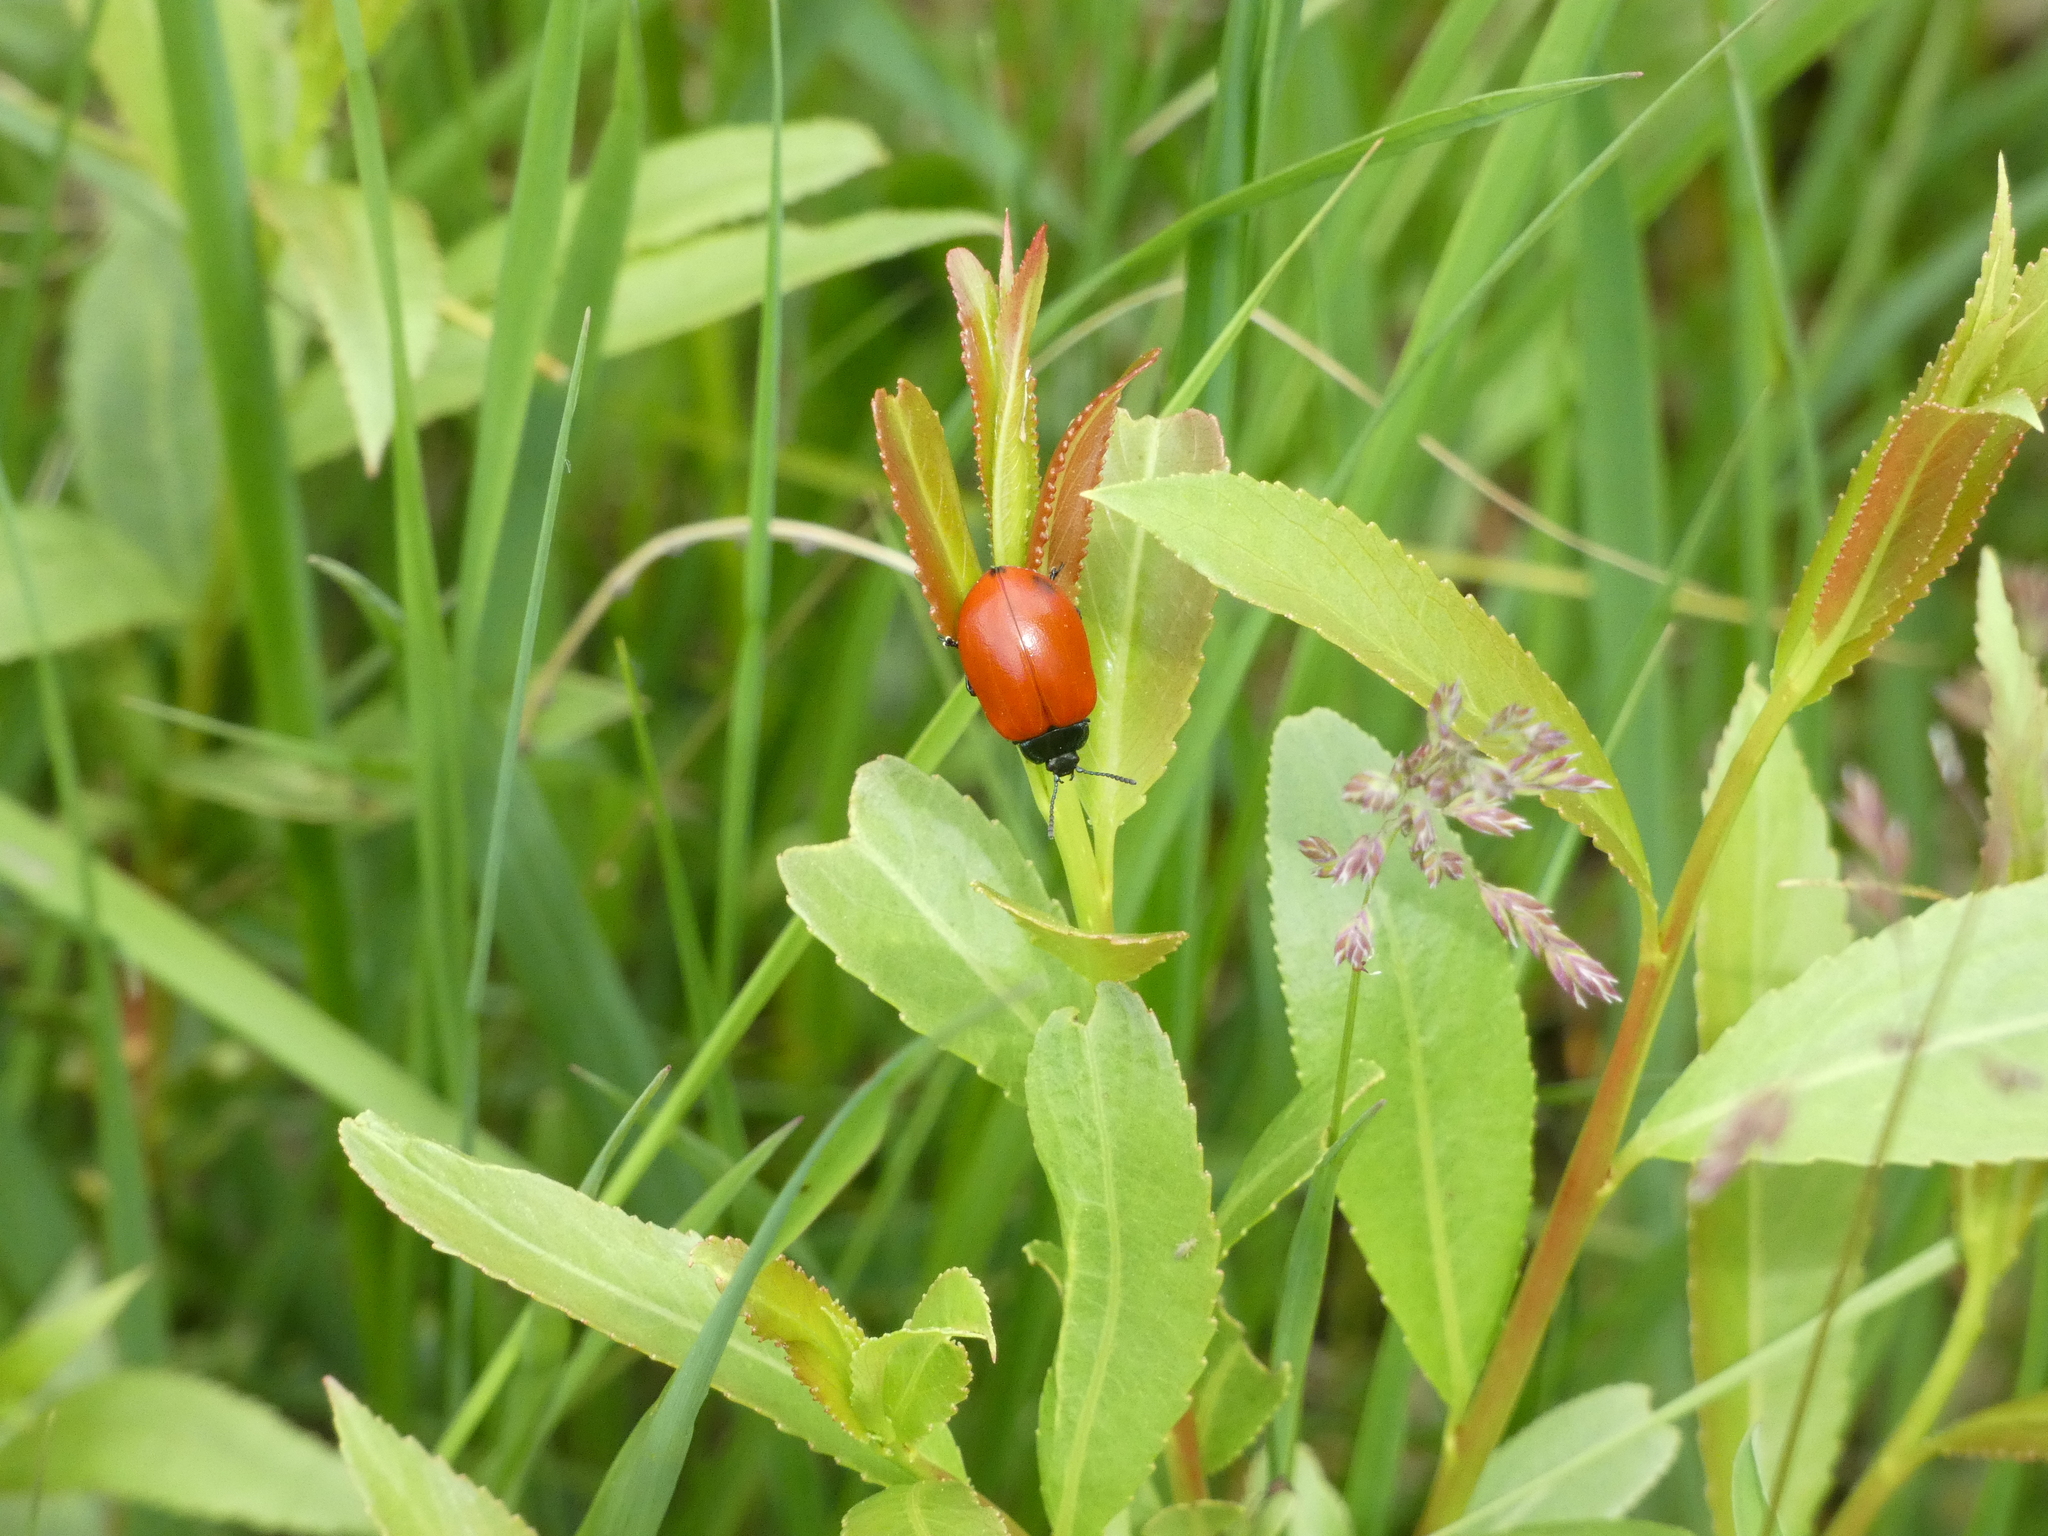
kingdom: Animalia
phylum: Arthropoda
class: Insecta
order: Coleoptera
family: Chrysomelidae
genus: Chrysomela
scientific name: Chrysomela populi
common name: Red poplar leaf beetle
